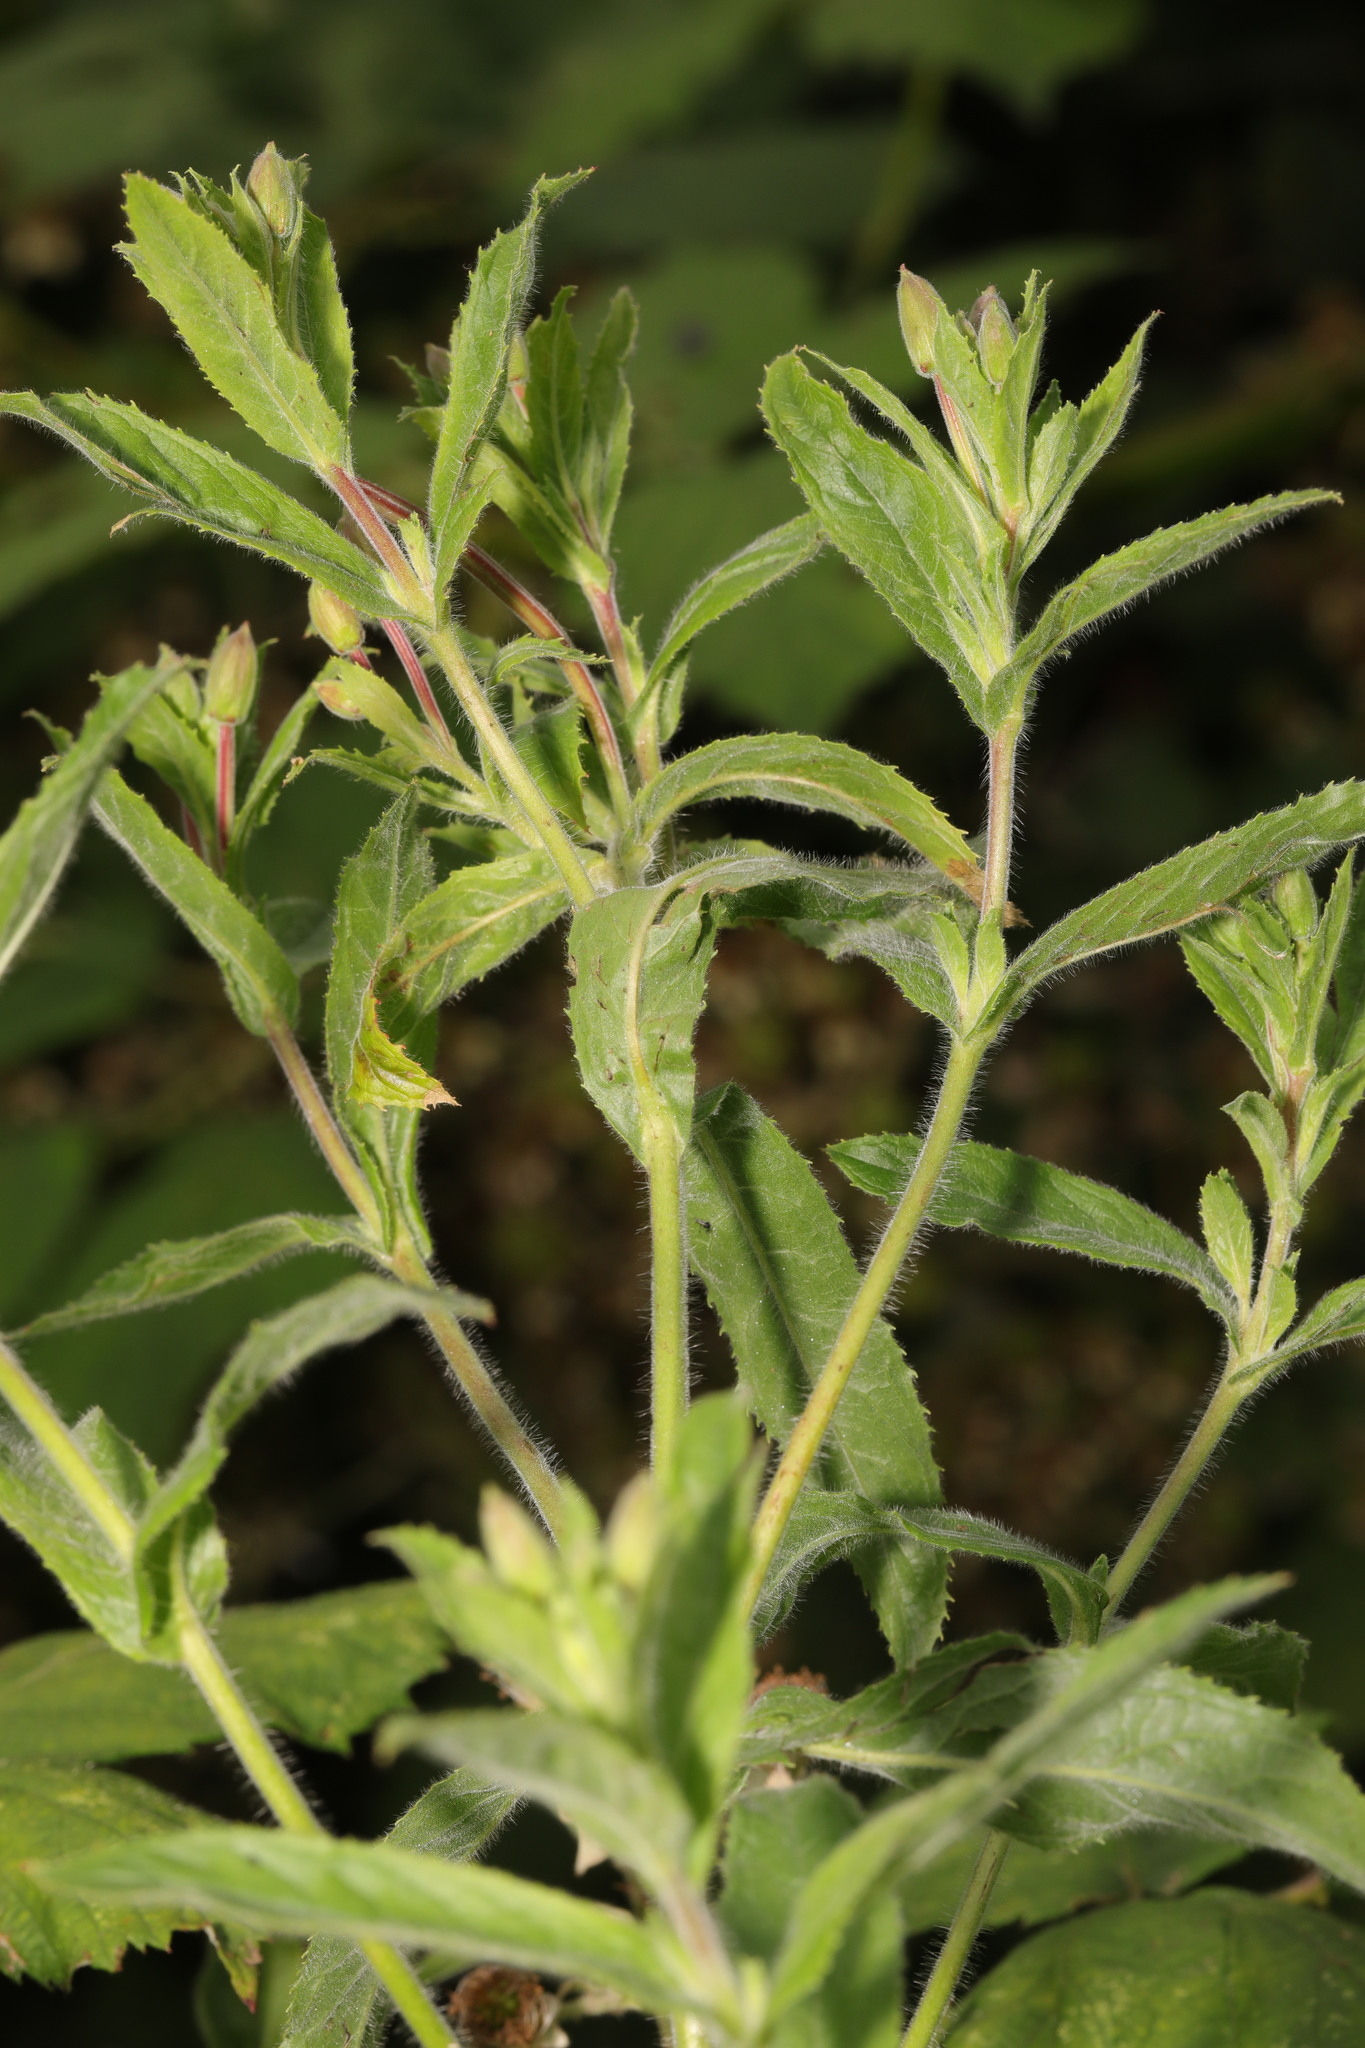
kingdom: Plantae
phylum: Tracheophyta
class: Magnoliopsida
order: Myrtales
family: Onagraceae
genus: Epilobium
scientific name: Epilobium hirsutum
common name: Great willowherb
